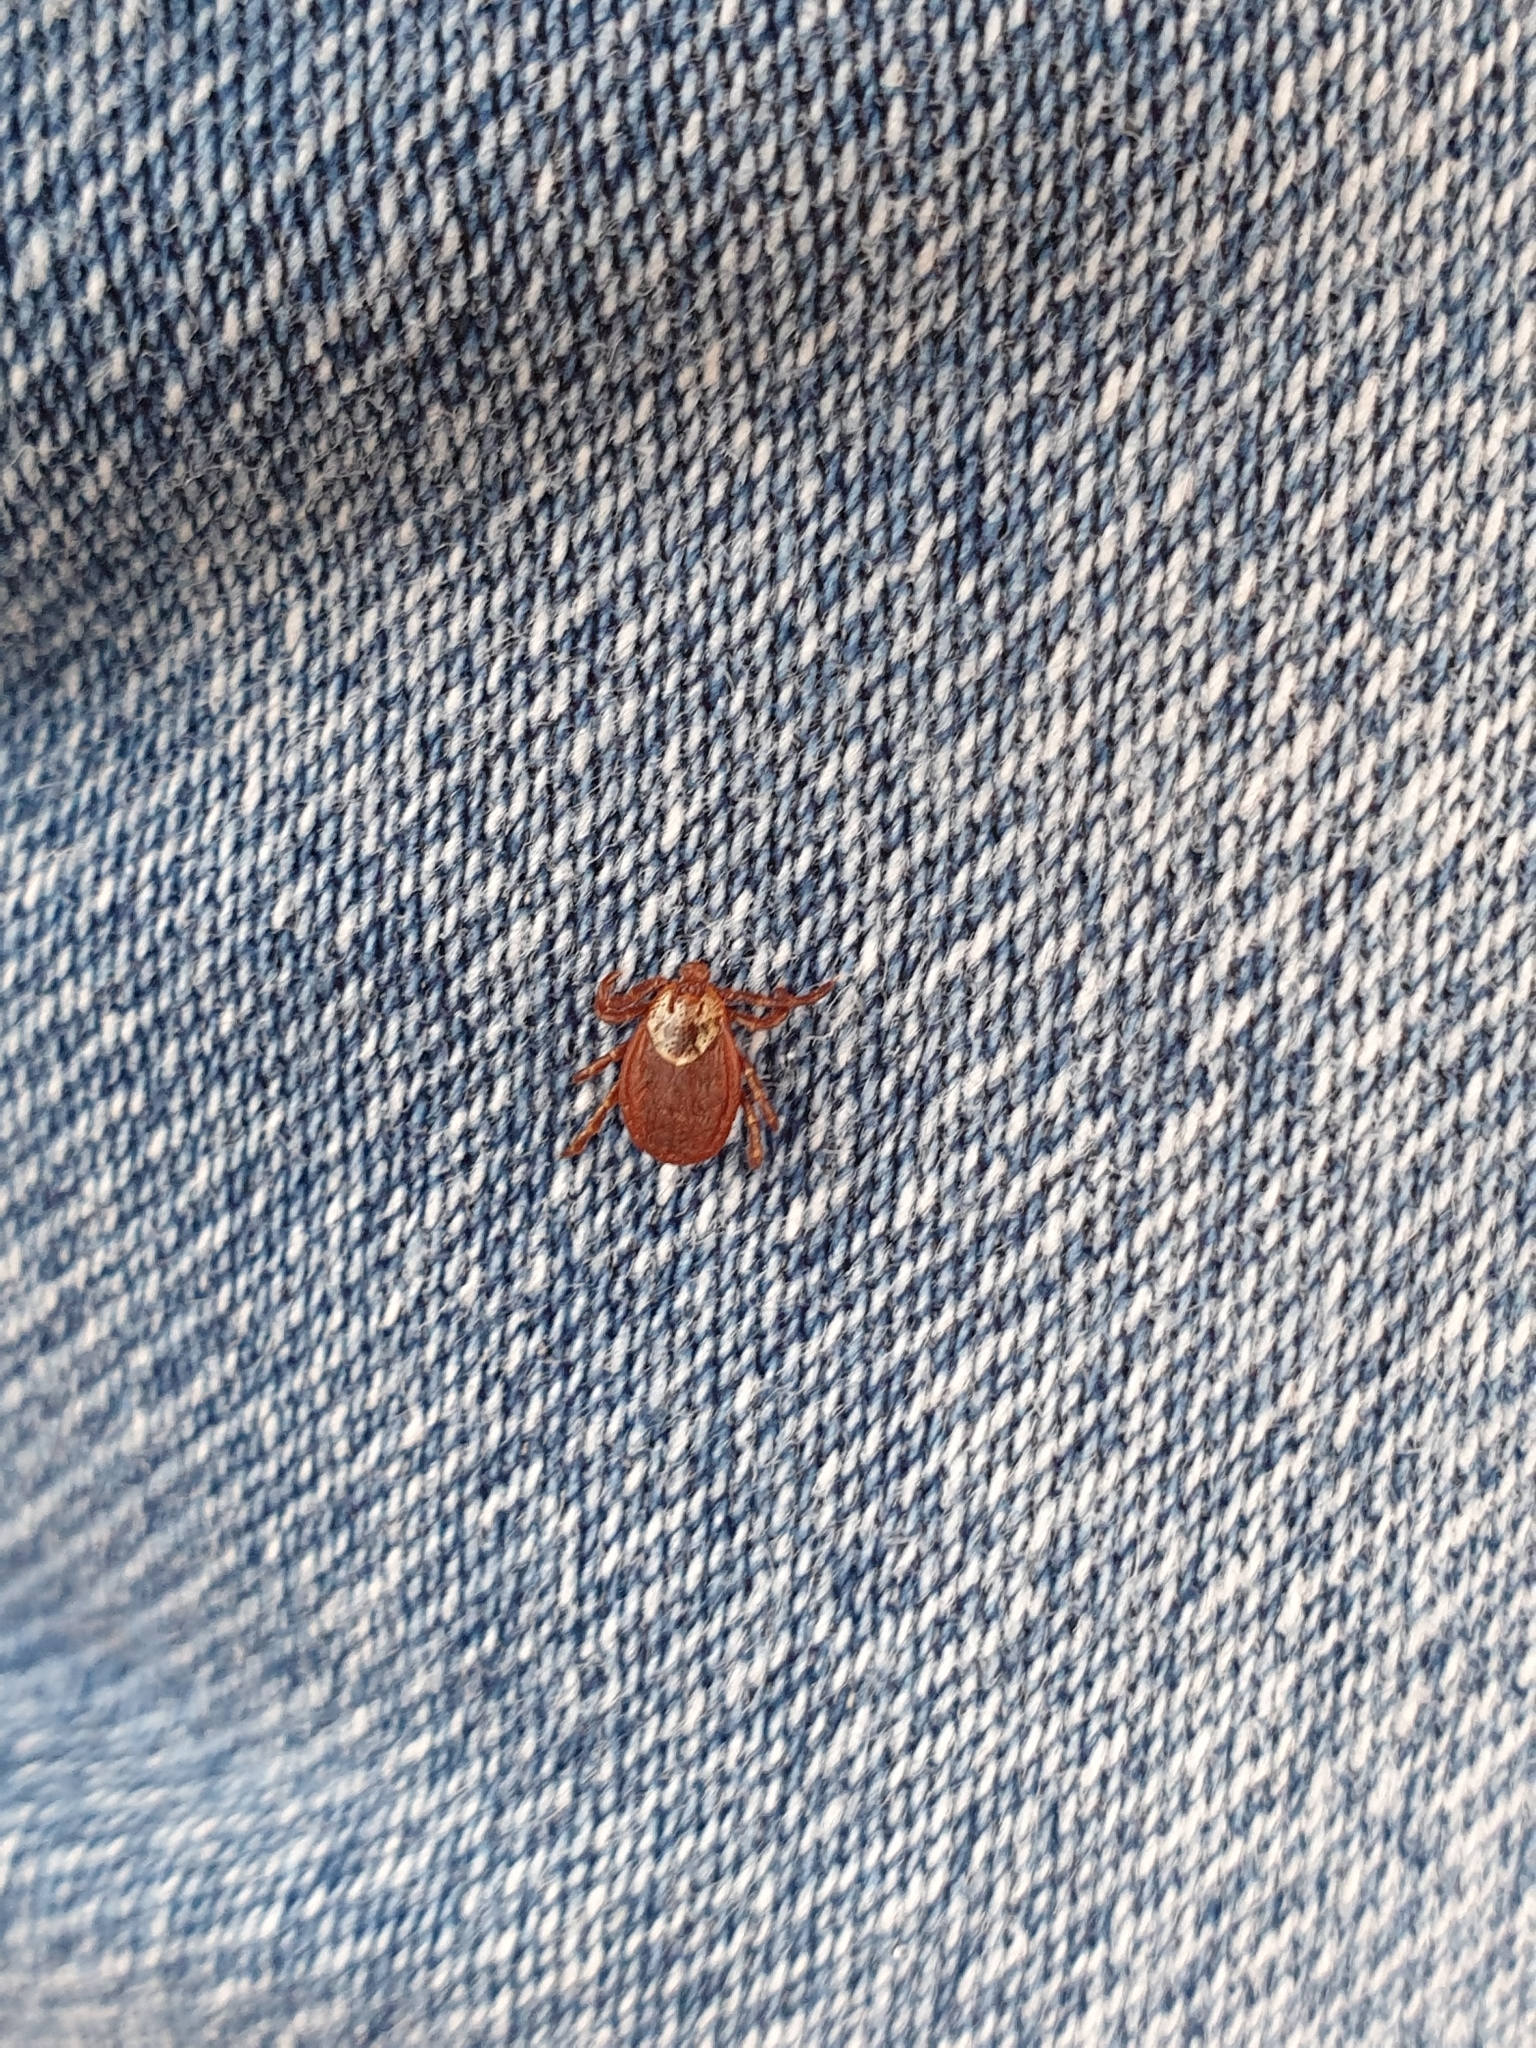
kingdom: Animalia
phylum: Arthropoda
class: Arachnida
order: Ixodida
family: Ixodidae
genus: Dermacentor
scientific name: Dermacentor reticulatus
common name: Ornate cow tick
